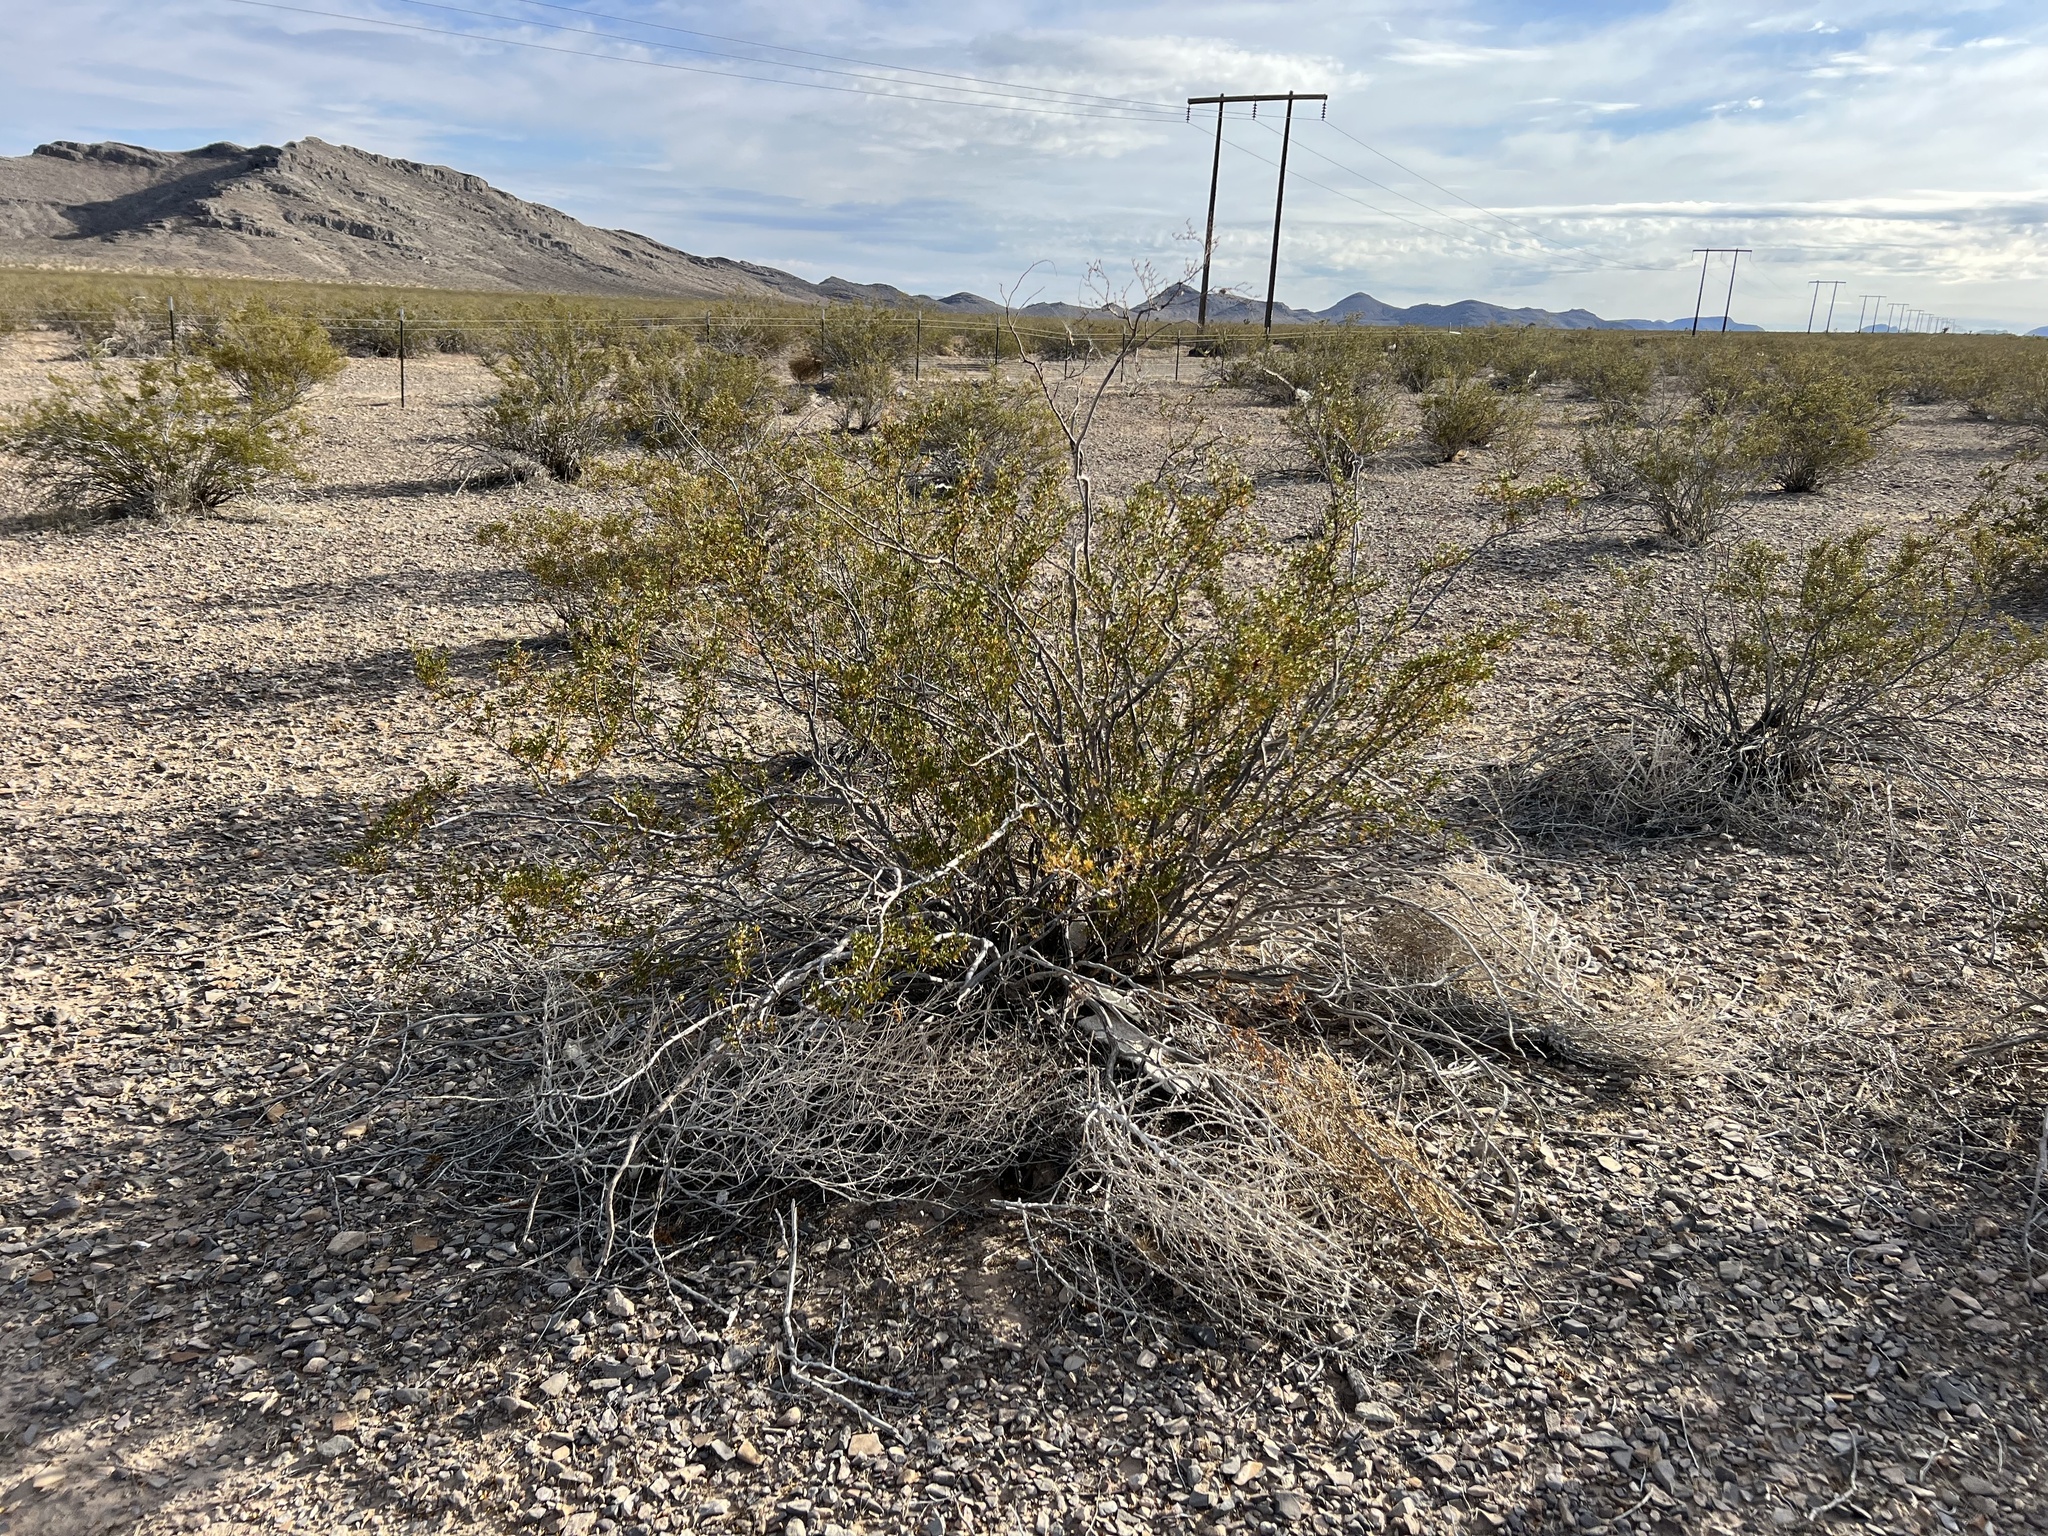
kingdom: Plantae
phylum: Tracheophyta
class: Magnoliopsida
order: Zygophyllales
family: Zygophyllaceae
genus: Larrea
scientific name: Larrea tridentata
